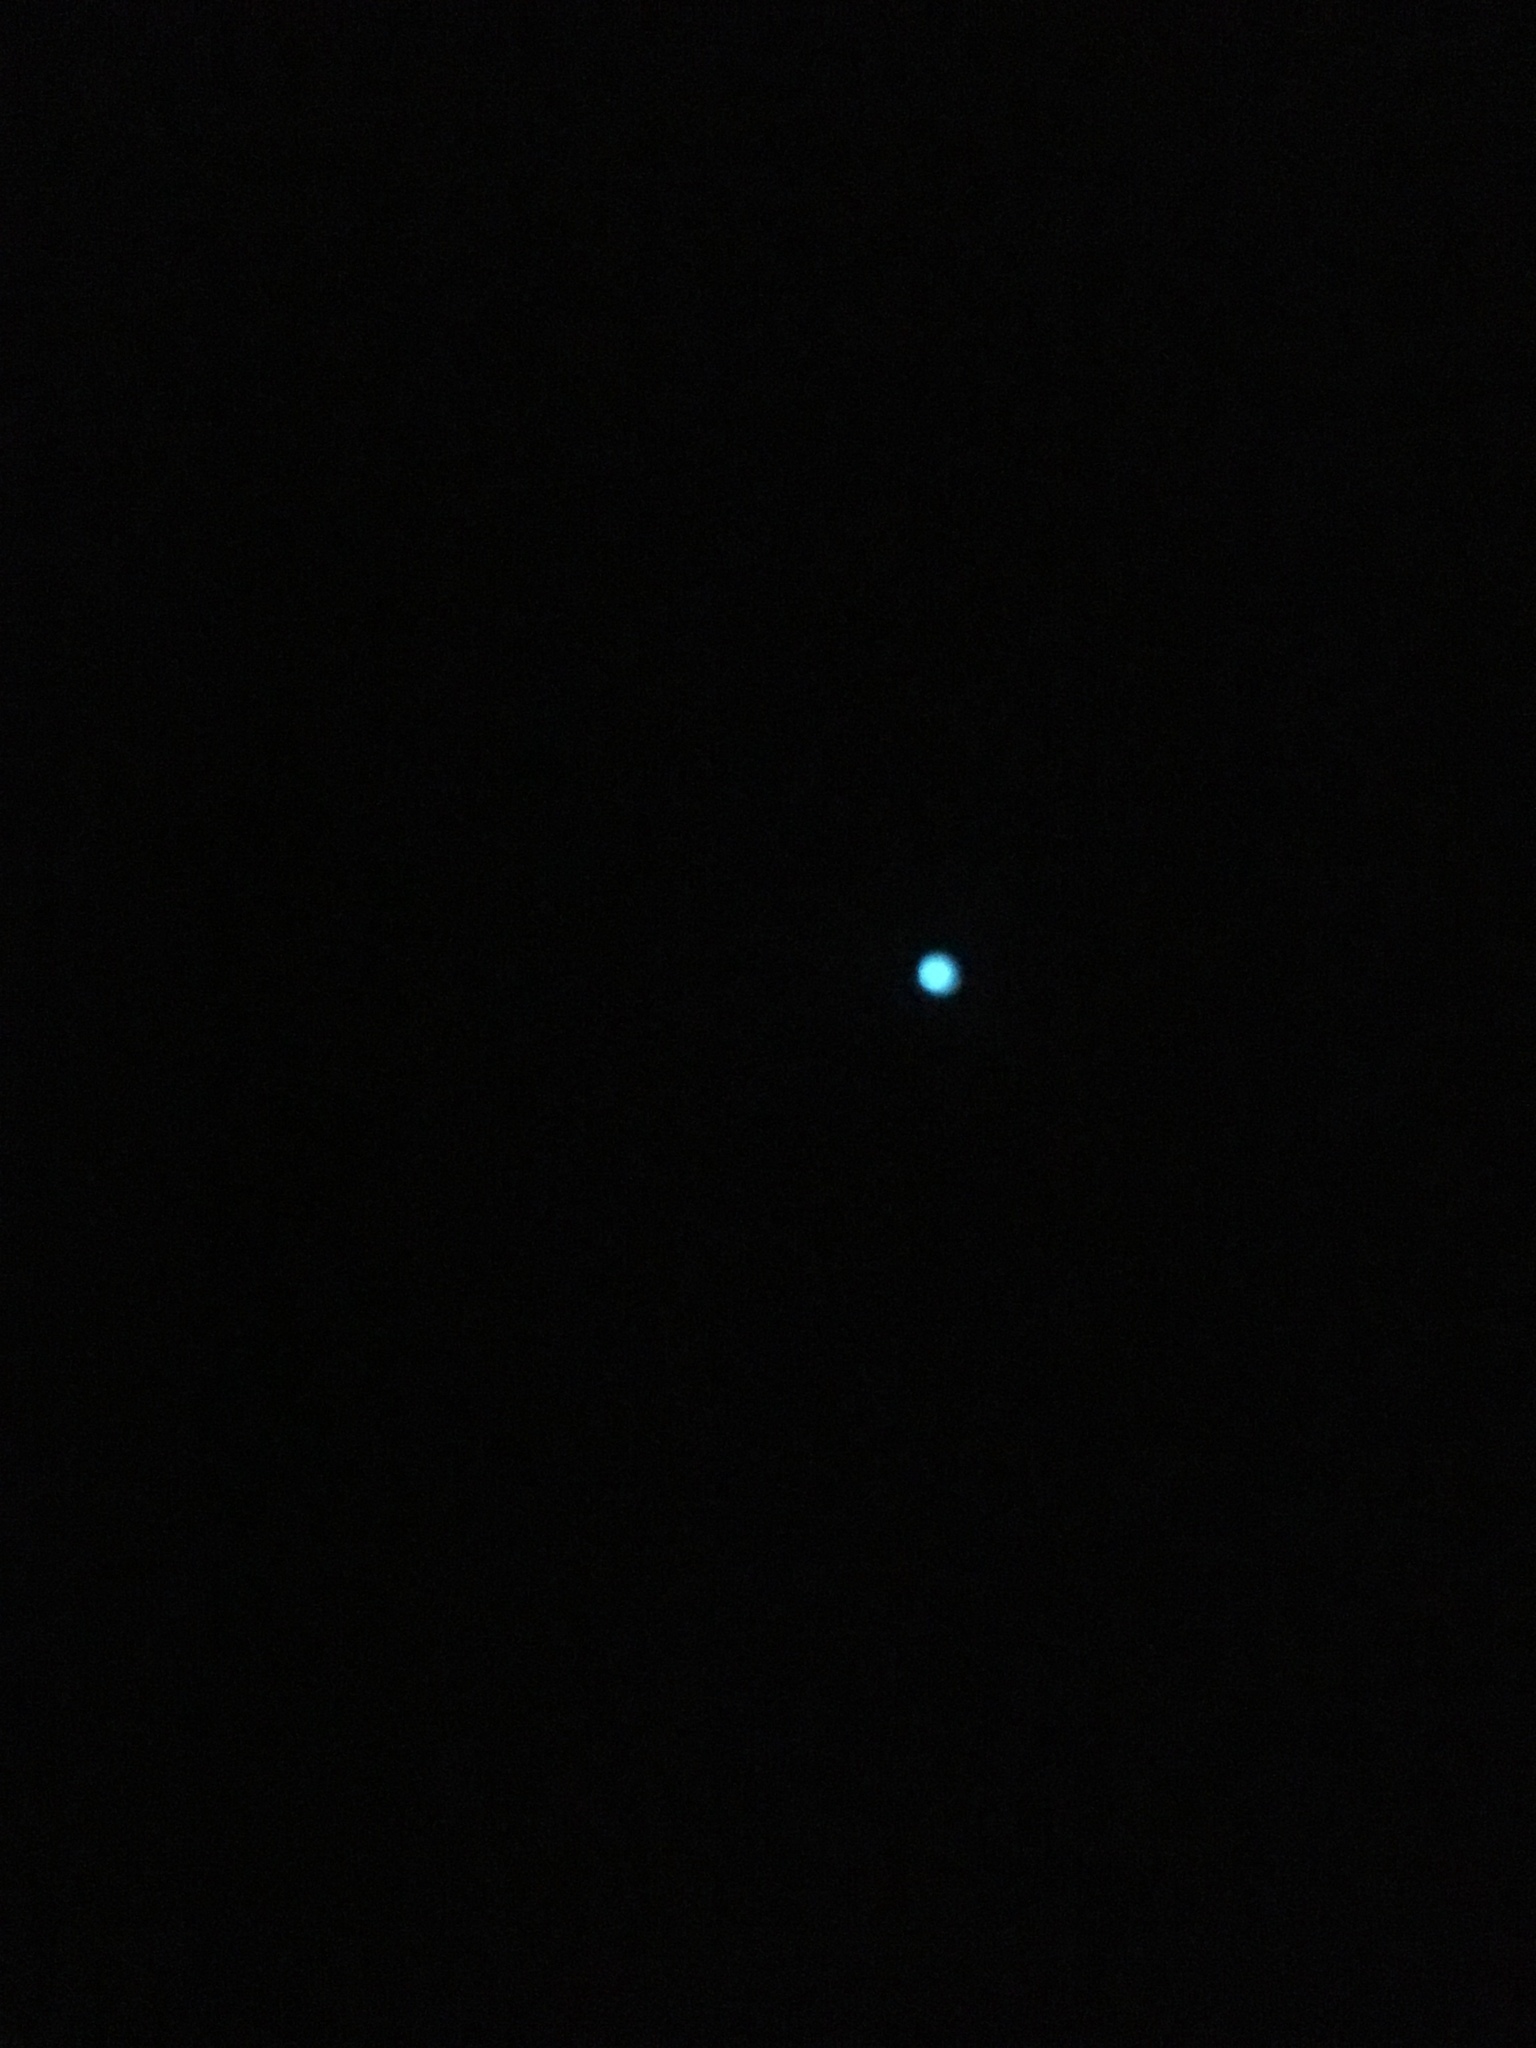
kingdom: Animalia
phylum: Arthropoda
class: Insecta
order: Diptera
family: Keroplatidae
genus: Arachnocampa
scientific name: Arachnocampa luminosa
